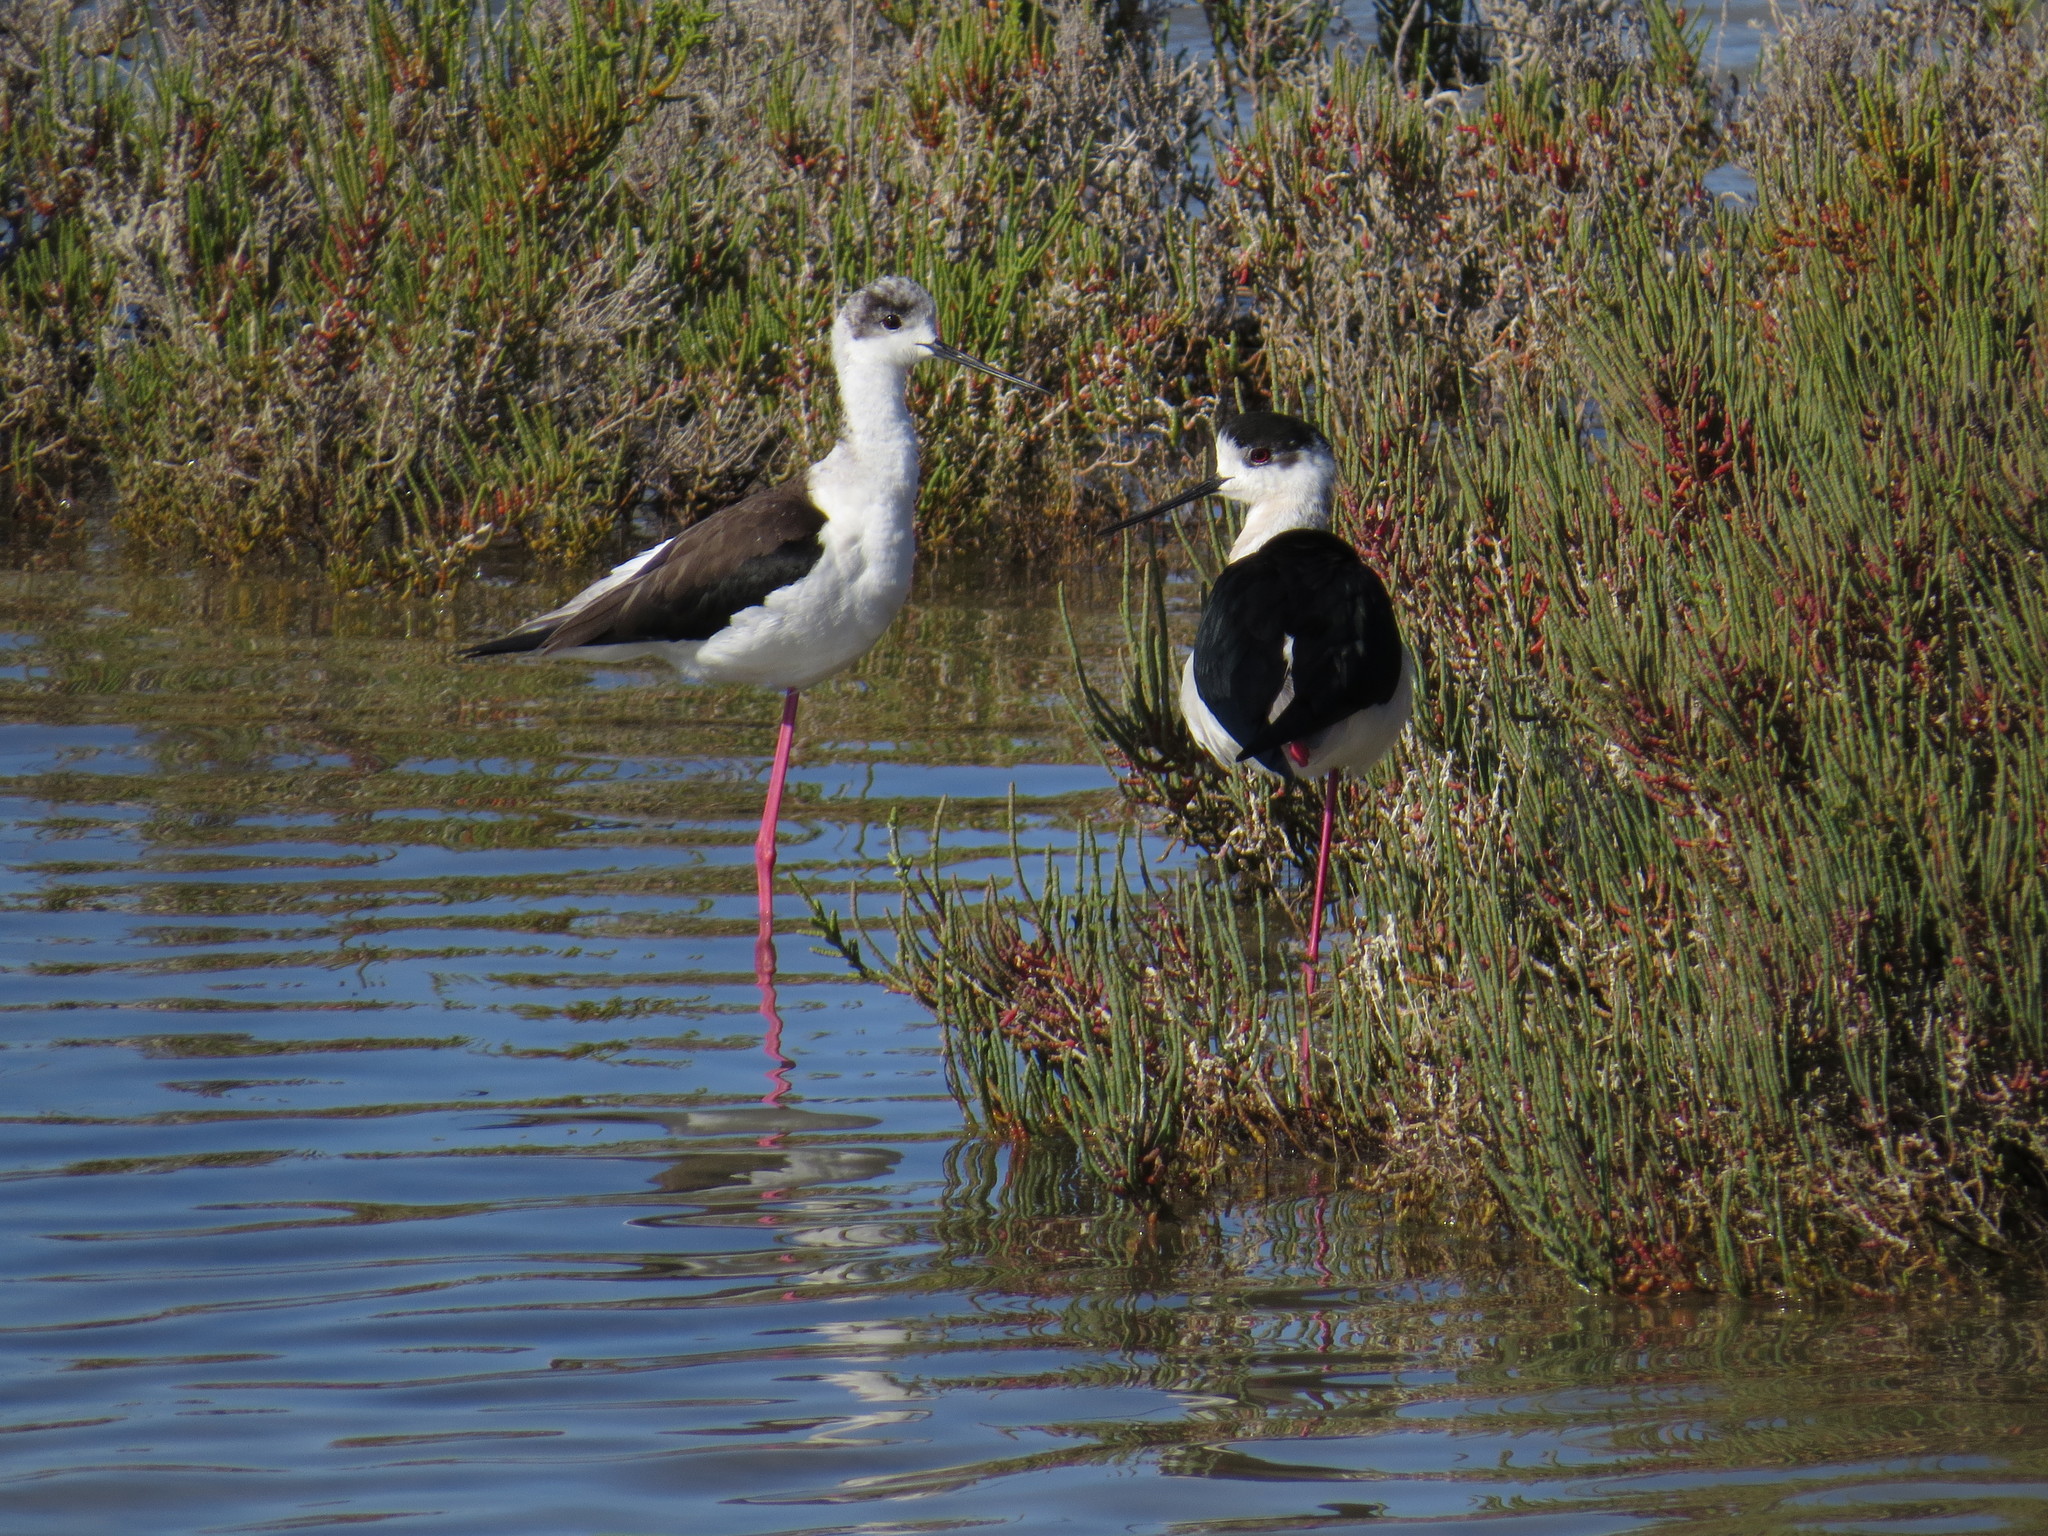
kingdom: Animalia
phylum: Chordata
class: Aves
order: Charadriiformes
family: Recurvirostridae
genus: Himantopus
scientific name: Himantopus himantopus
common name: Black-winged stilt
